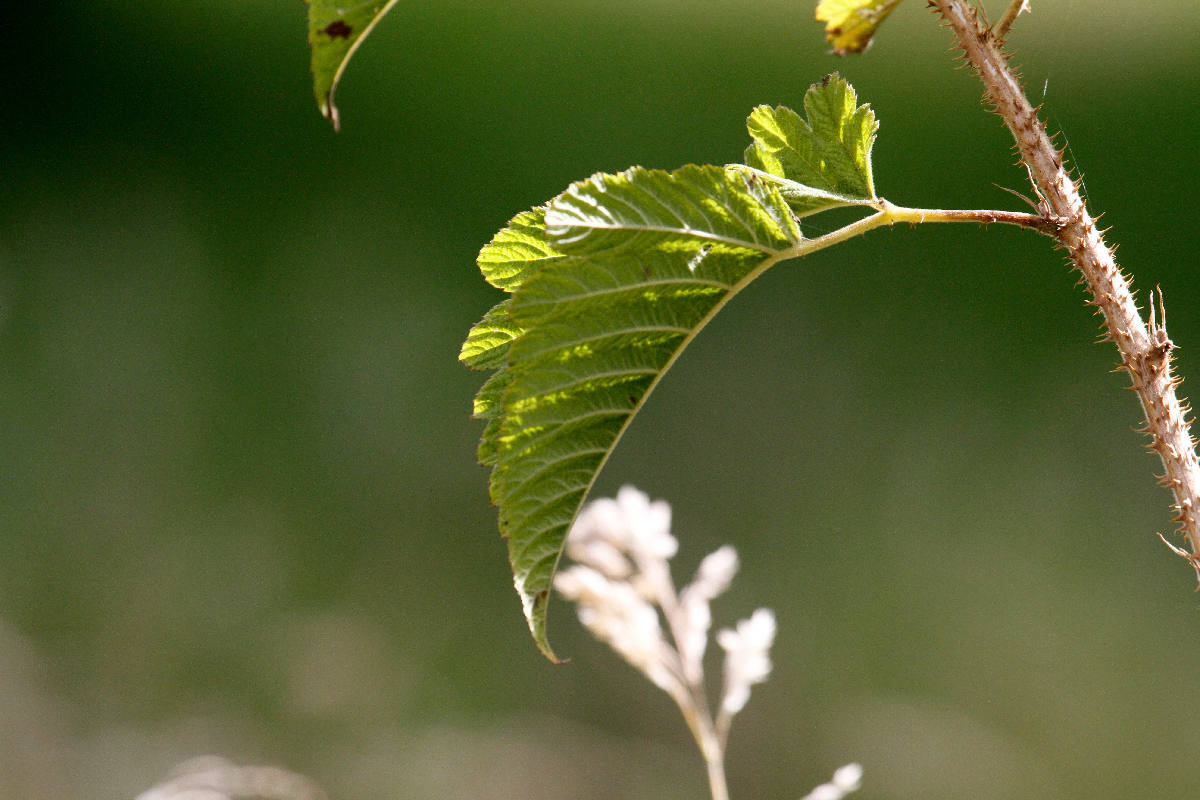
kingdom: Plantae
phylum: Tracheophyta
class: Magnoliopsida
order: Rosales
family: Rosaceae
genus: Rubus
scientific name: Rubus hawaiensis
